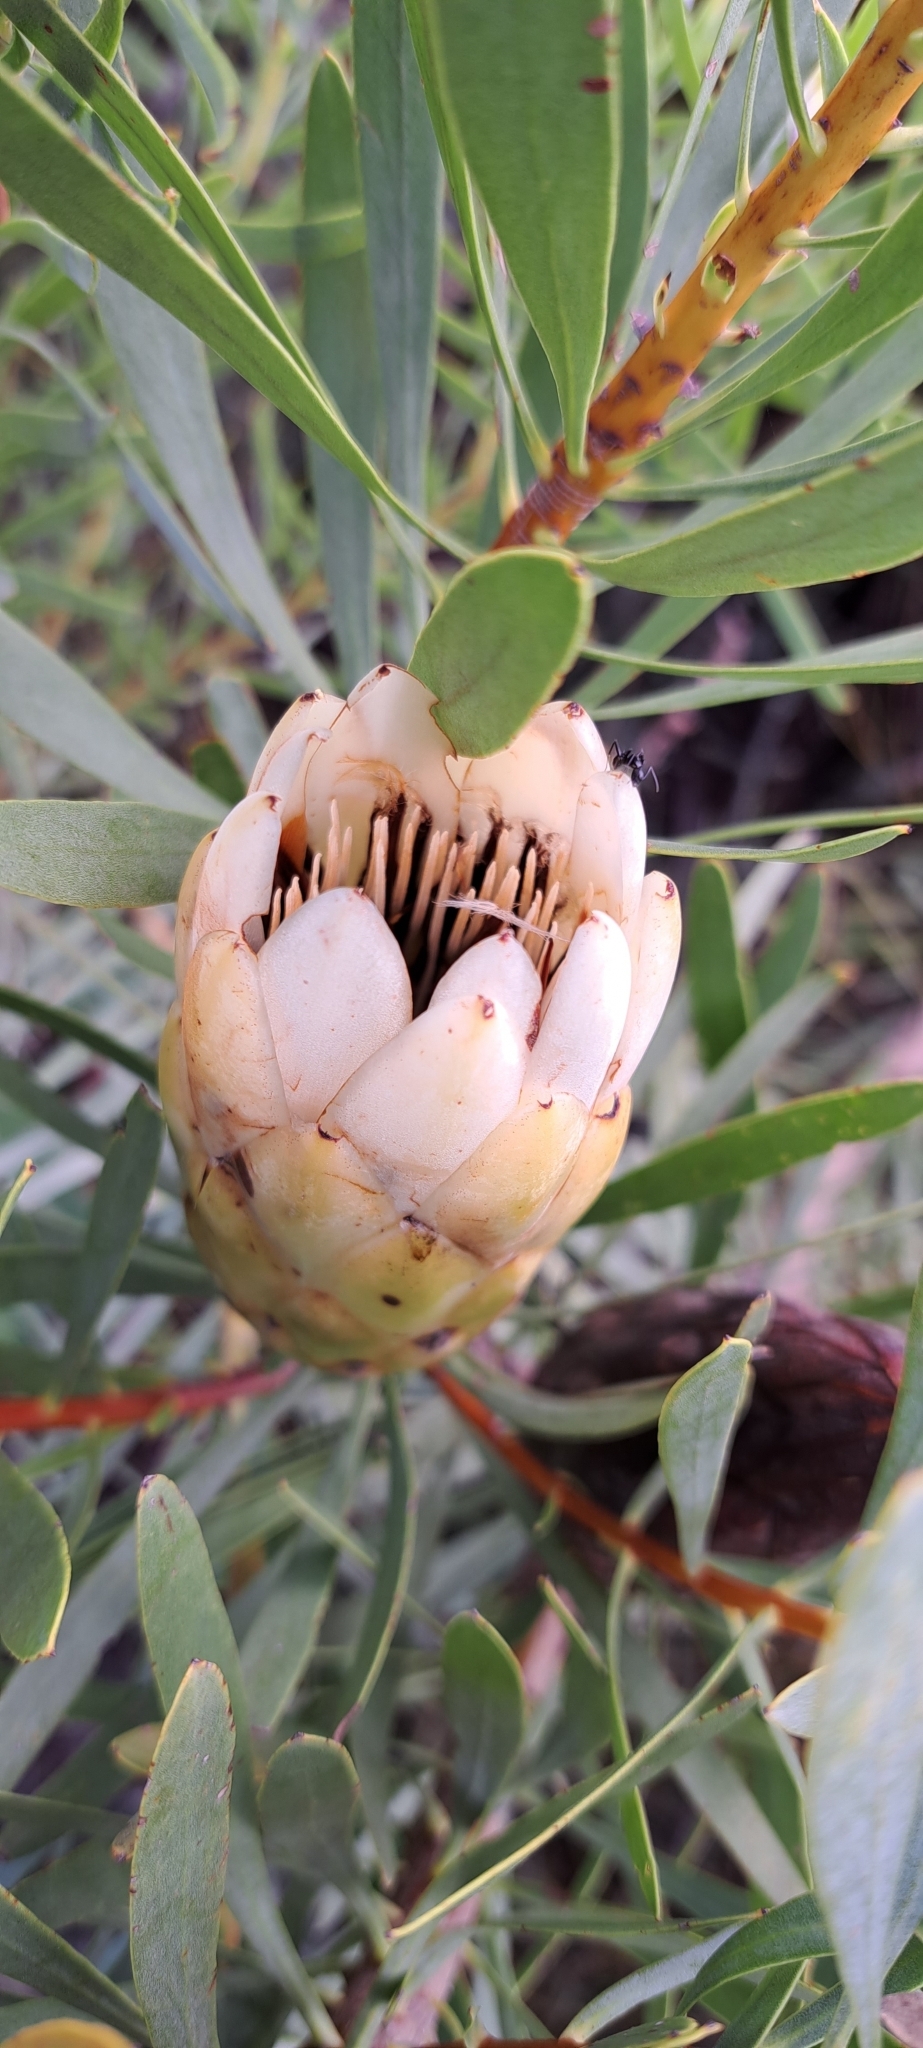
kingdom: Plantae
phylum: Tracheophyta
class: Magnoliopsida
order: Proteales
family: Proteaceae
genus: Protea
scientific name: Protea repens
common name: Sugarbush
